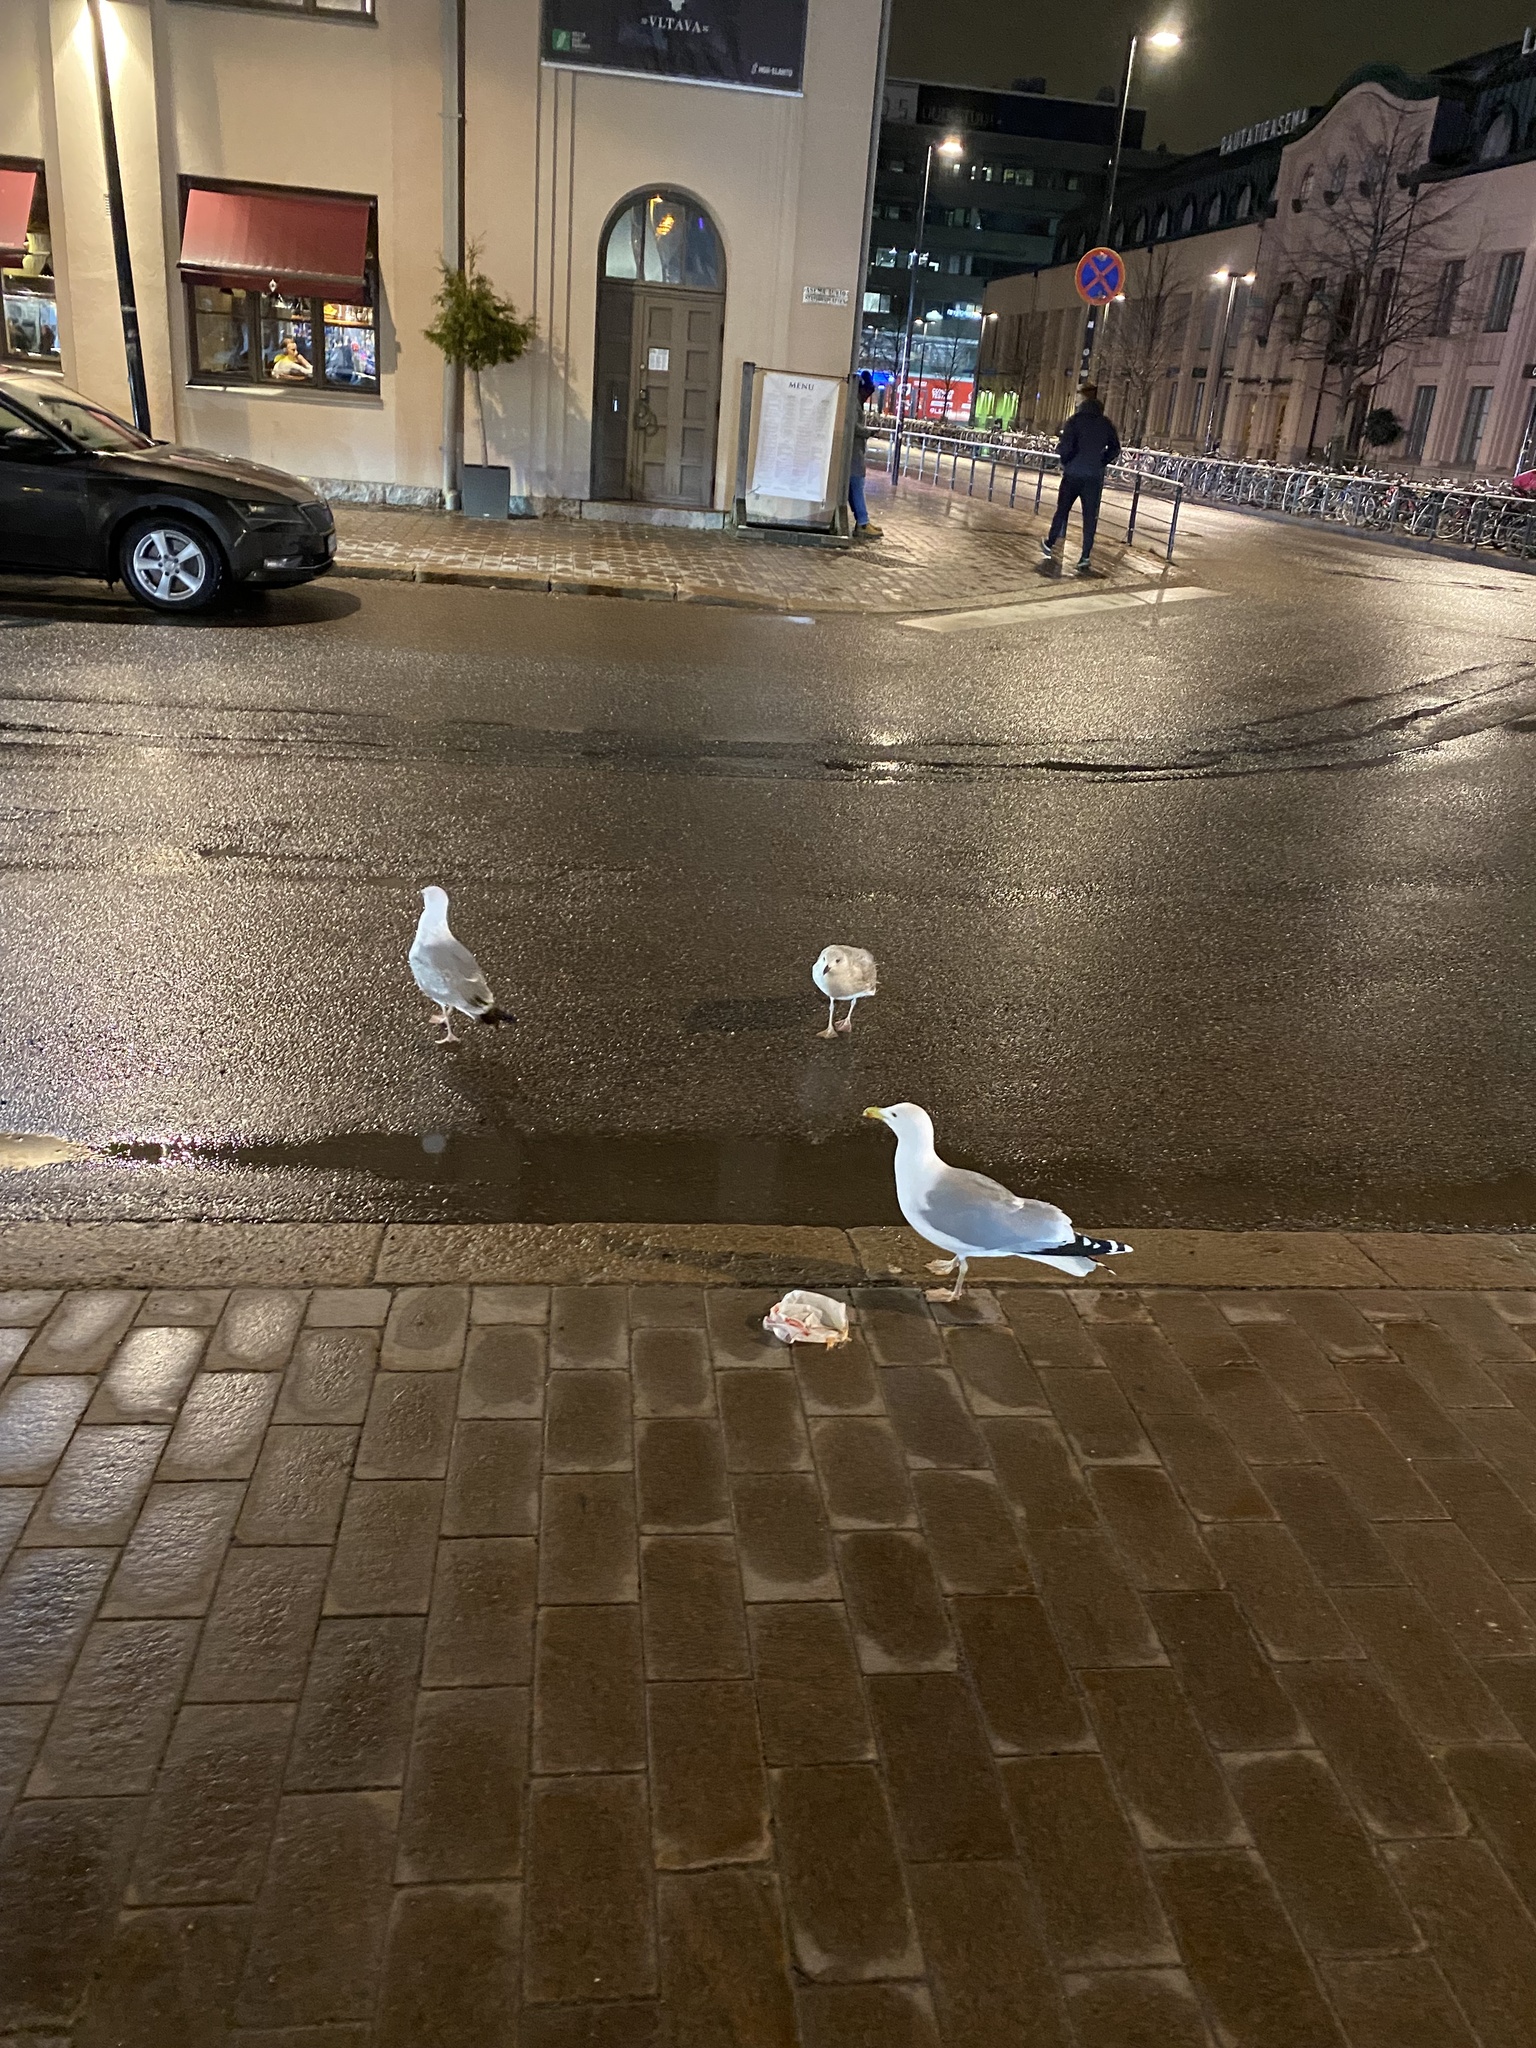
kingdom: Animalia
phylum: Chordata
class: Aves
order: Charadriiformes
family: Laridae
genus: Larus
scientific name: Larus argentatus
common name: Herring gull
